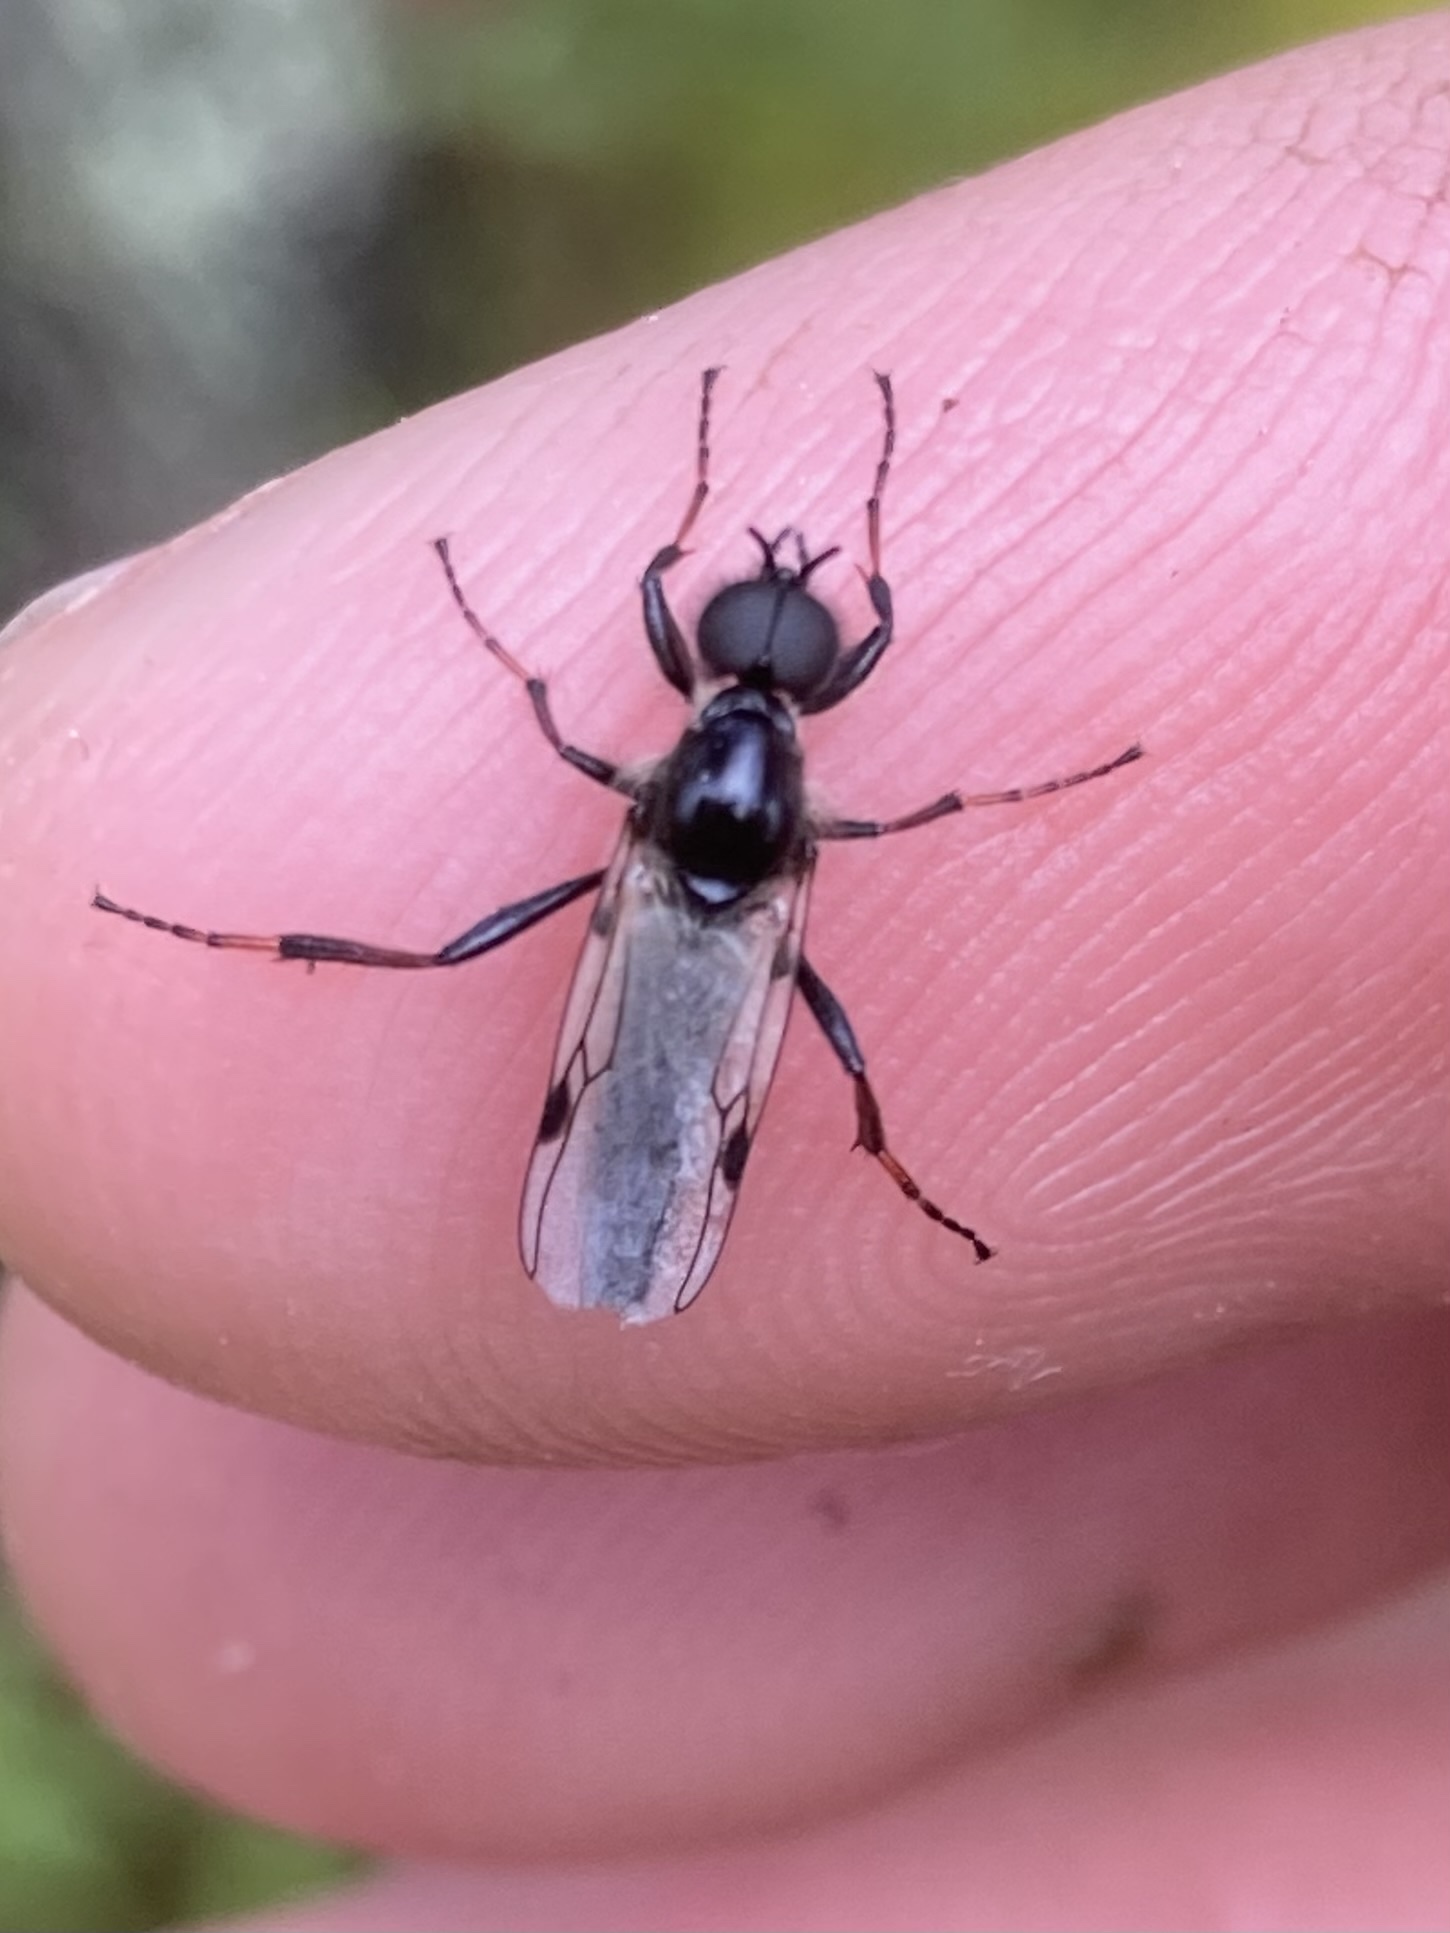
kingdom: Animalia
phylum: Arthropoda
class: Insecta
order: Diptera
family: Bibionidae
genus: Bibio
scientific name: Bibio
